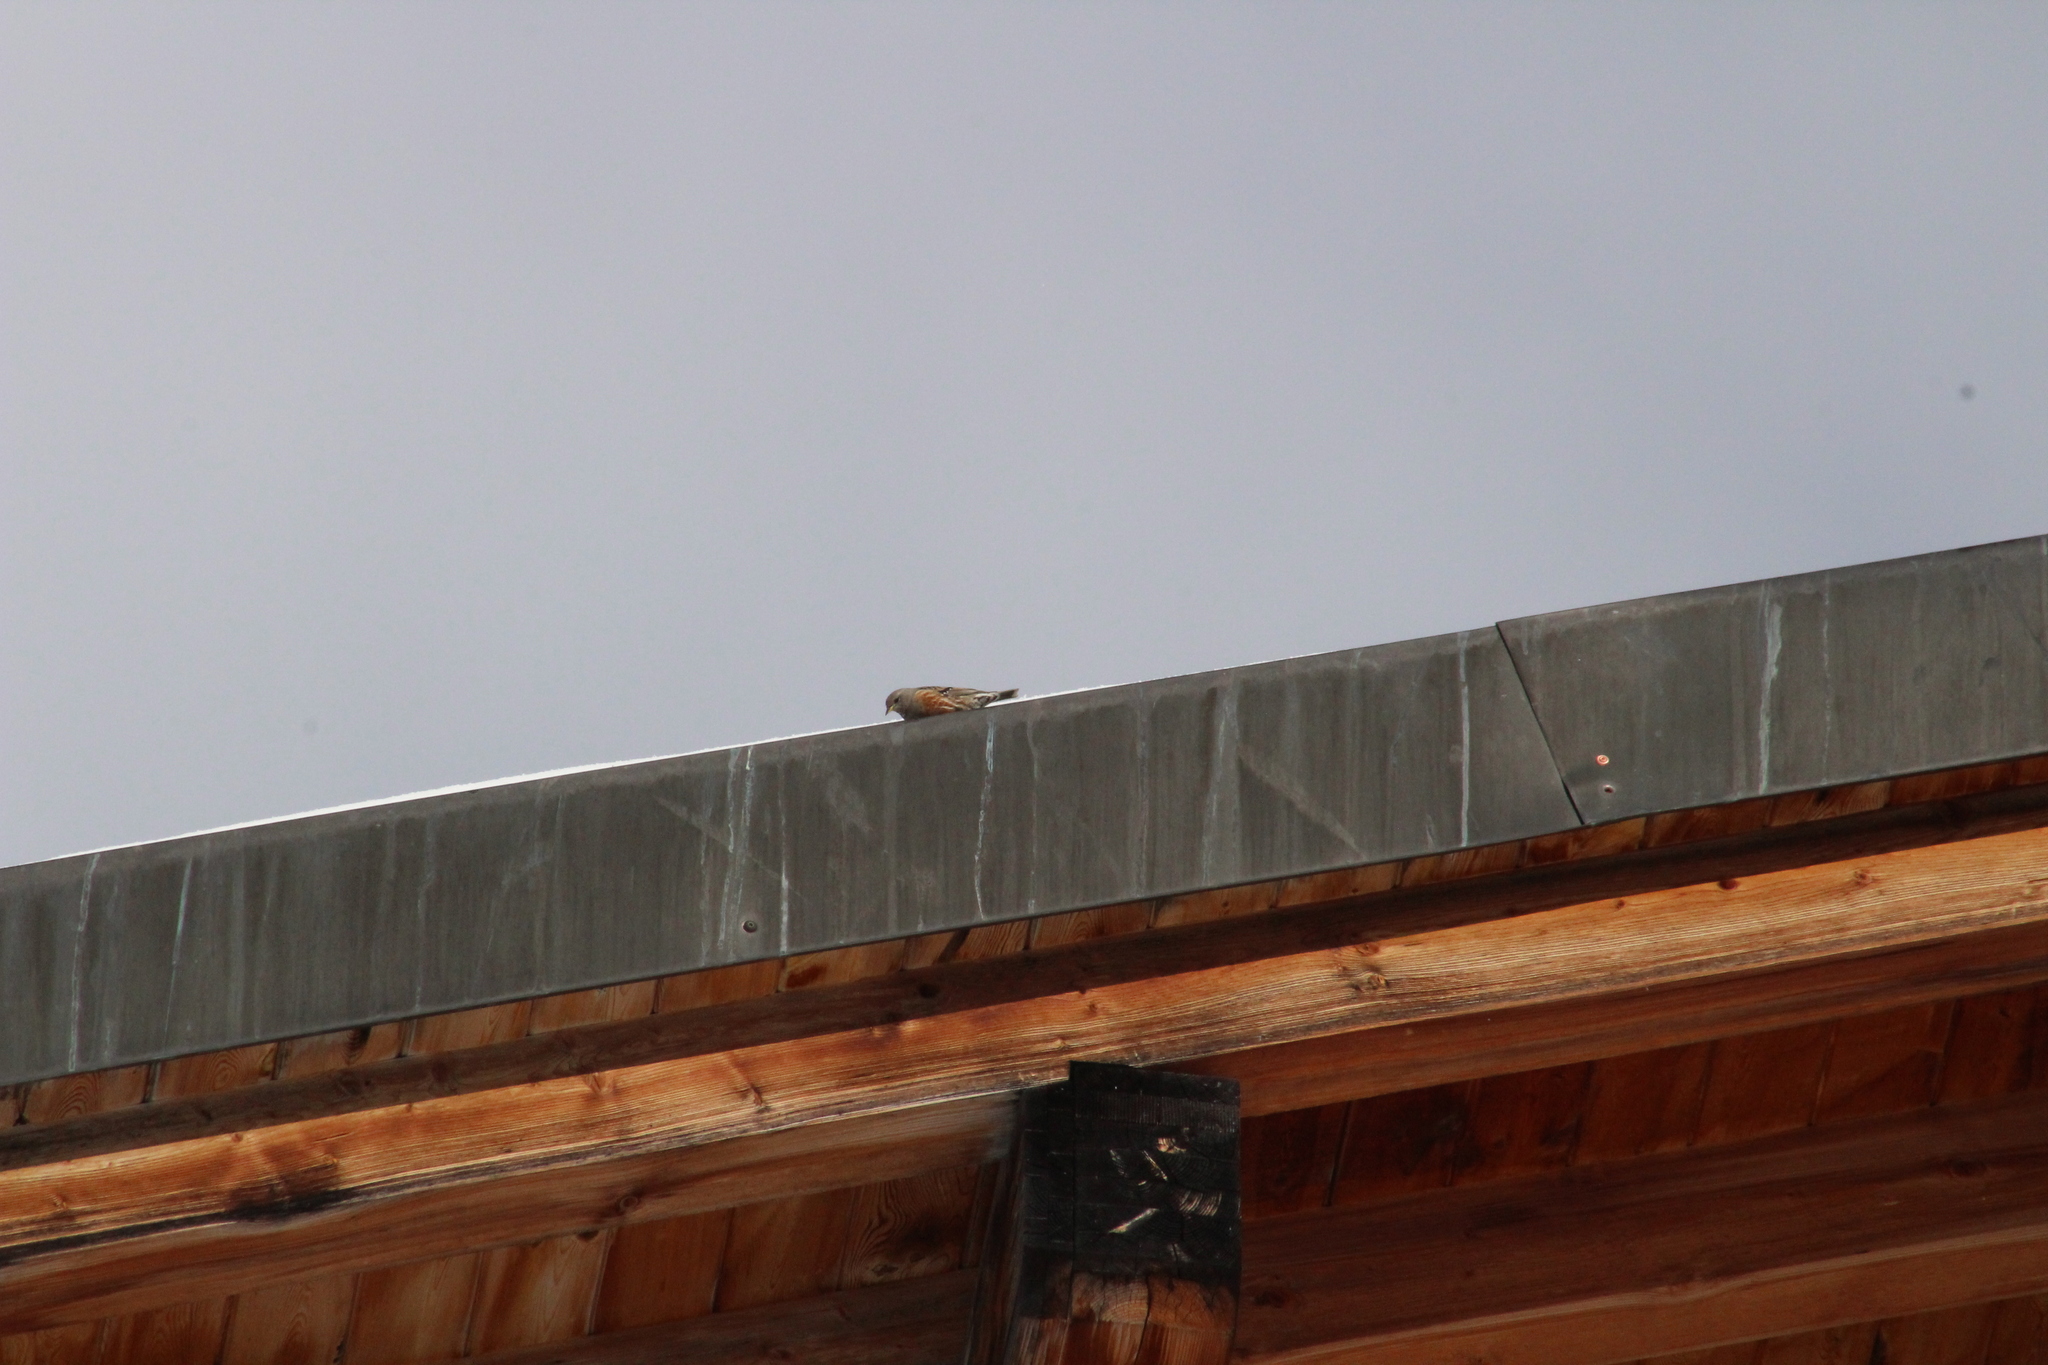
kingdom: Animalia
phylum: Chordata
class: Aves
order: Passeriformes
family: Prunellidae
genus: Prunella
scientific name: Prunella collaris
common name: Alpine accentor
